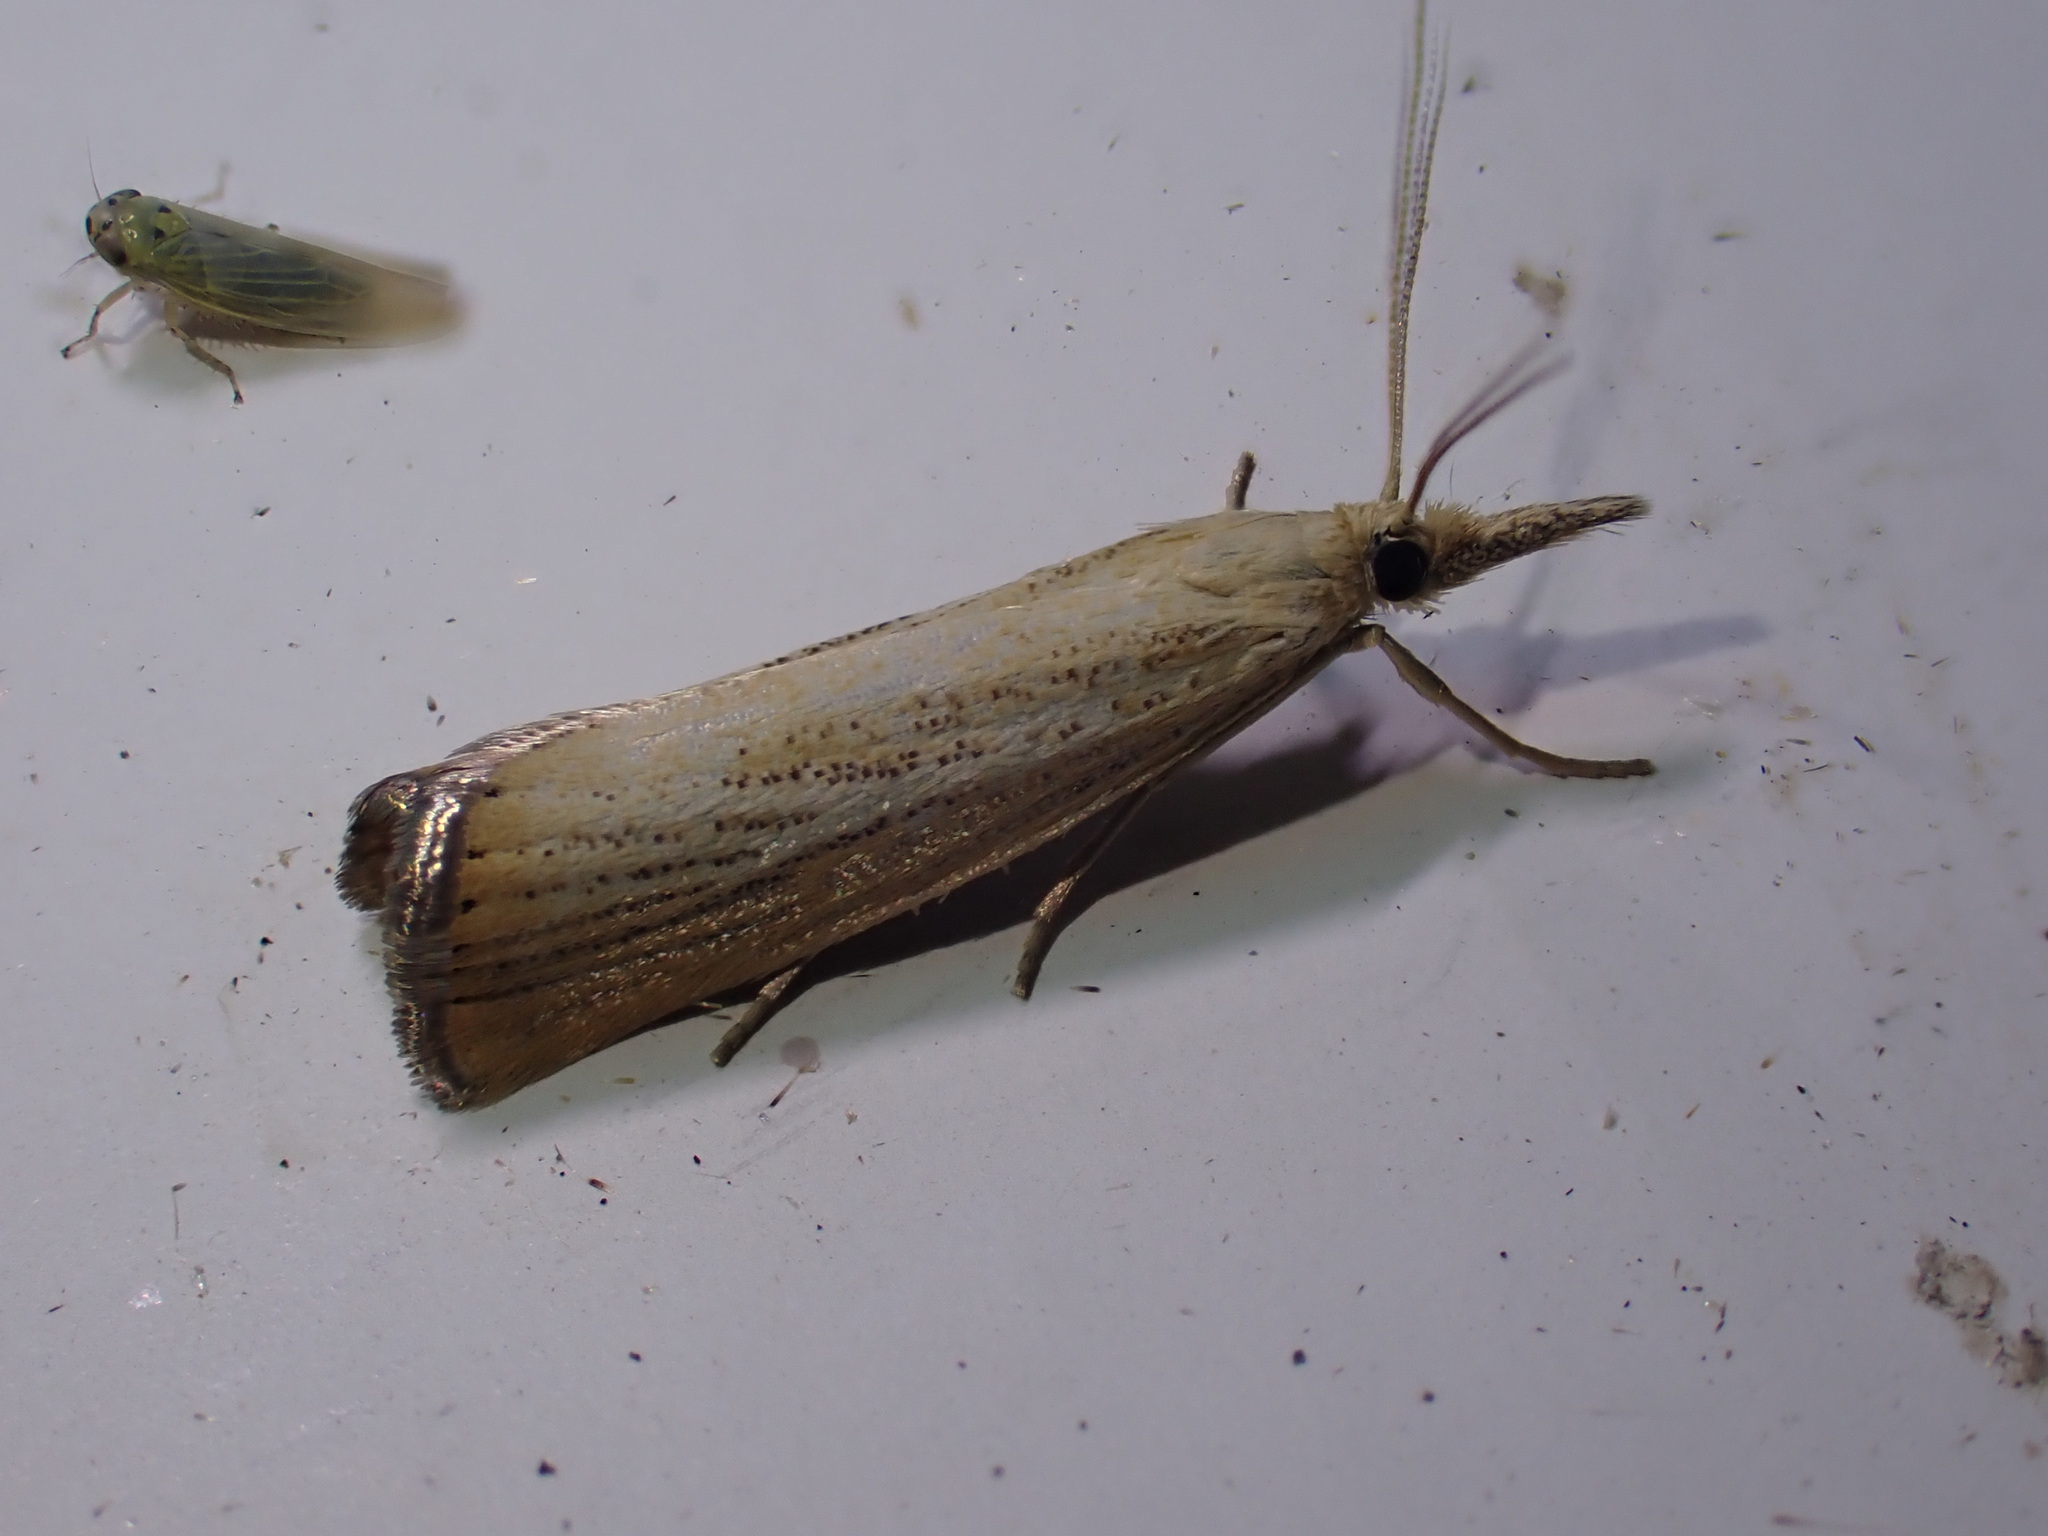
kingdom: Animalia
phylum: Arthropoda
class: Insecta
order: Lepidoptera
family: Crambidae
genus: Agriphila
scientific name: Agriphila straminella
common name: Straw grass-veneer
